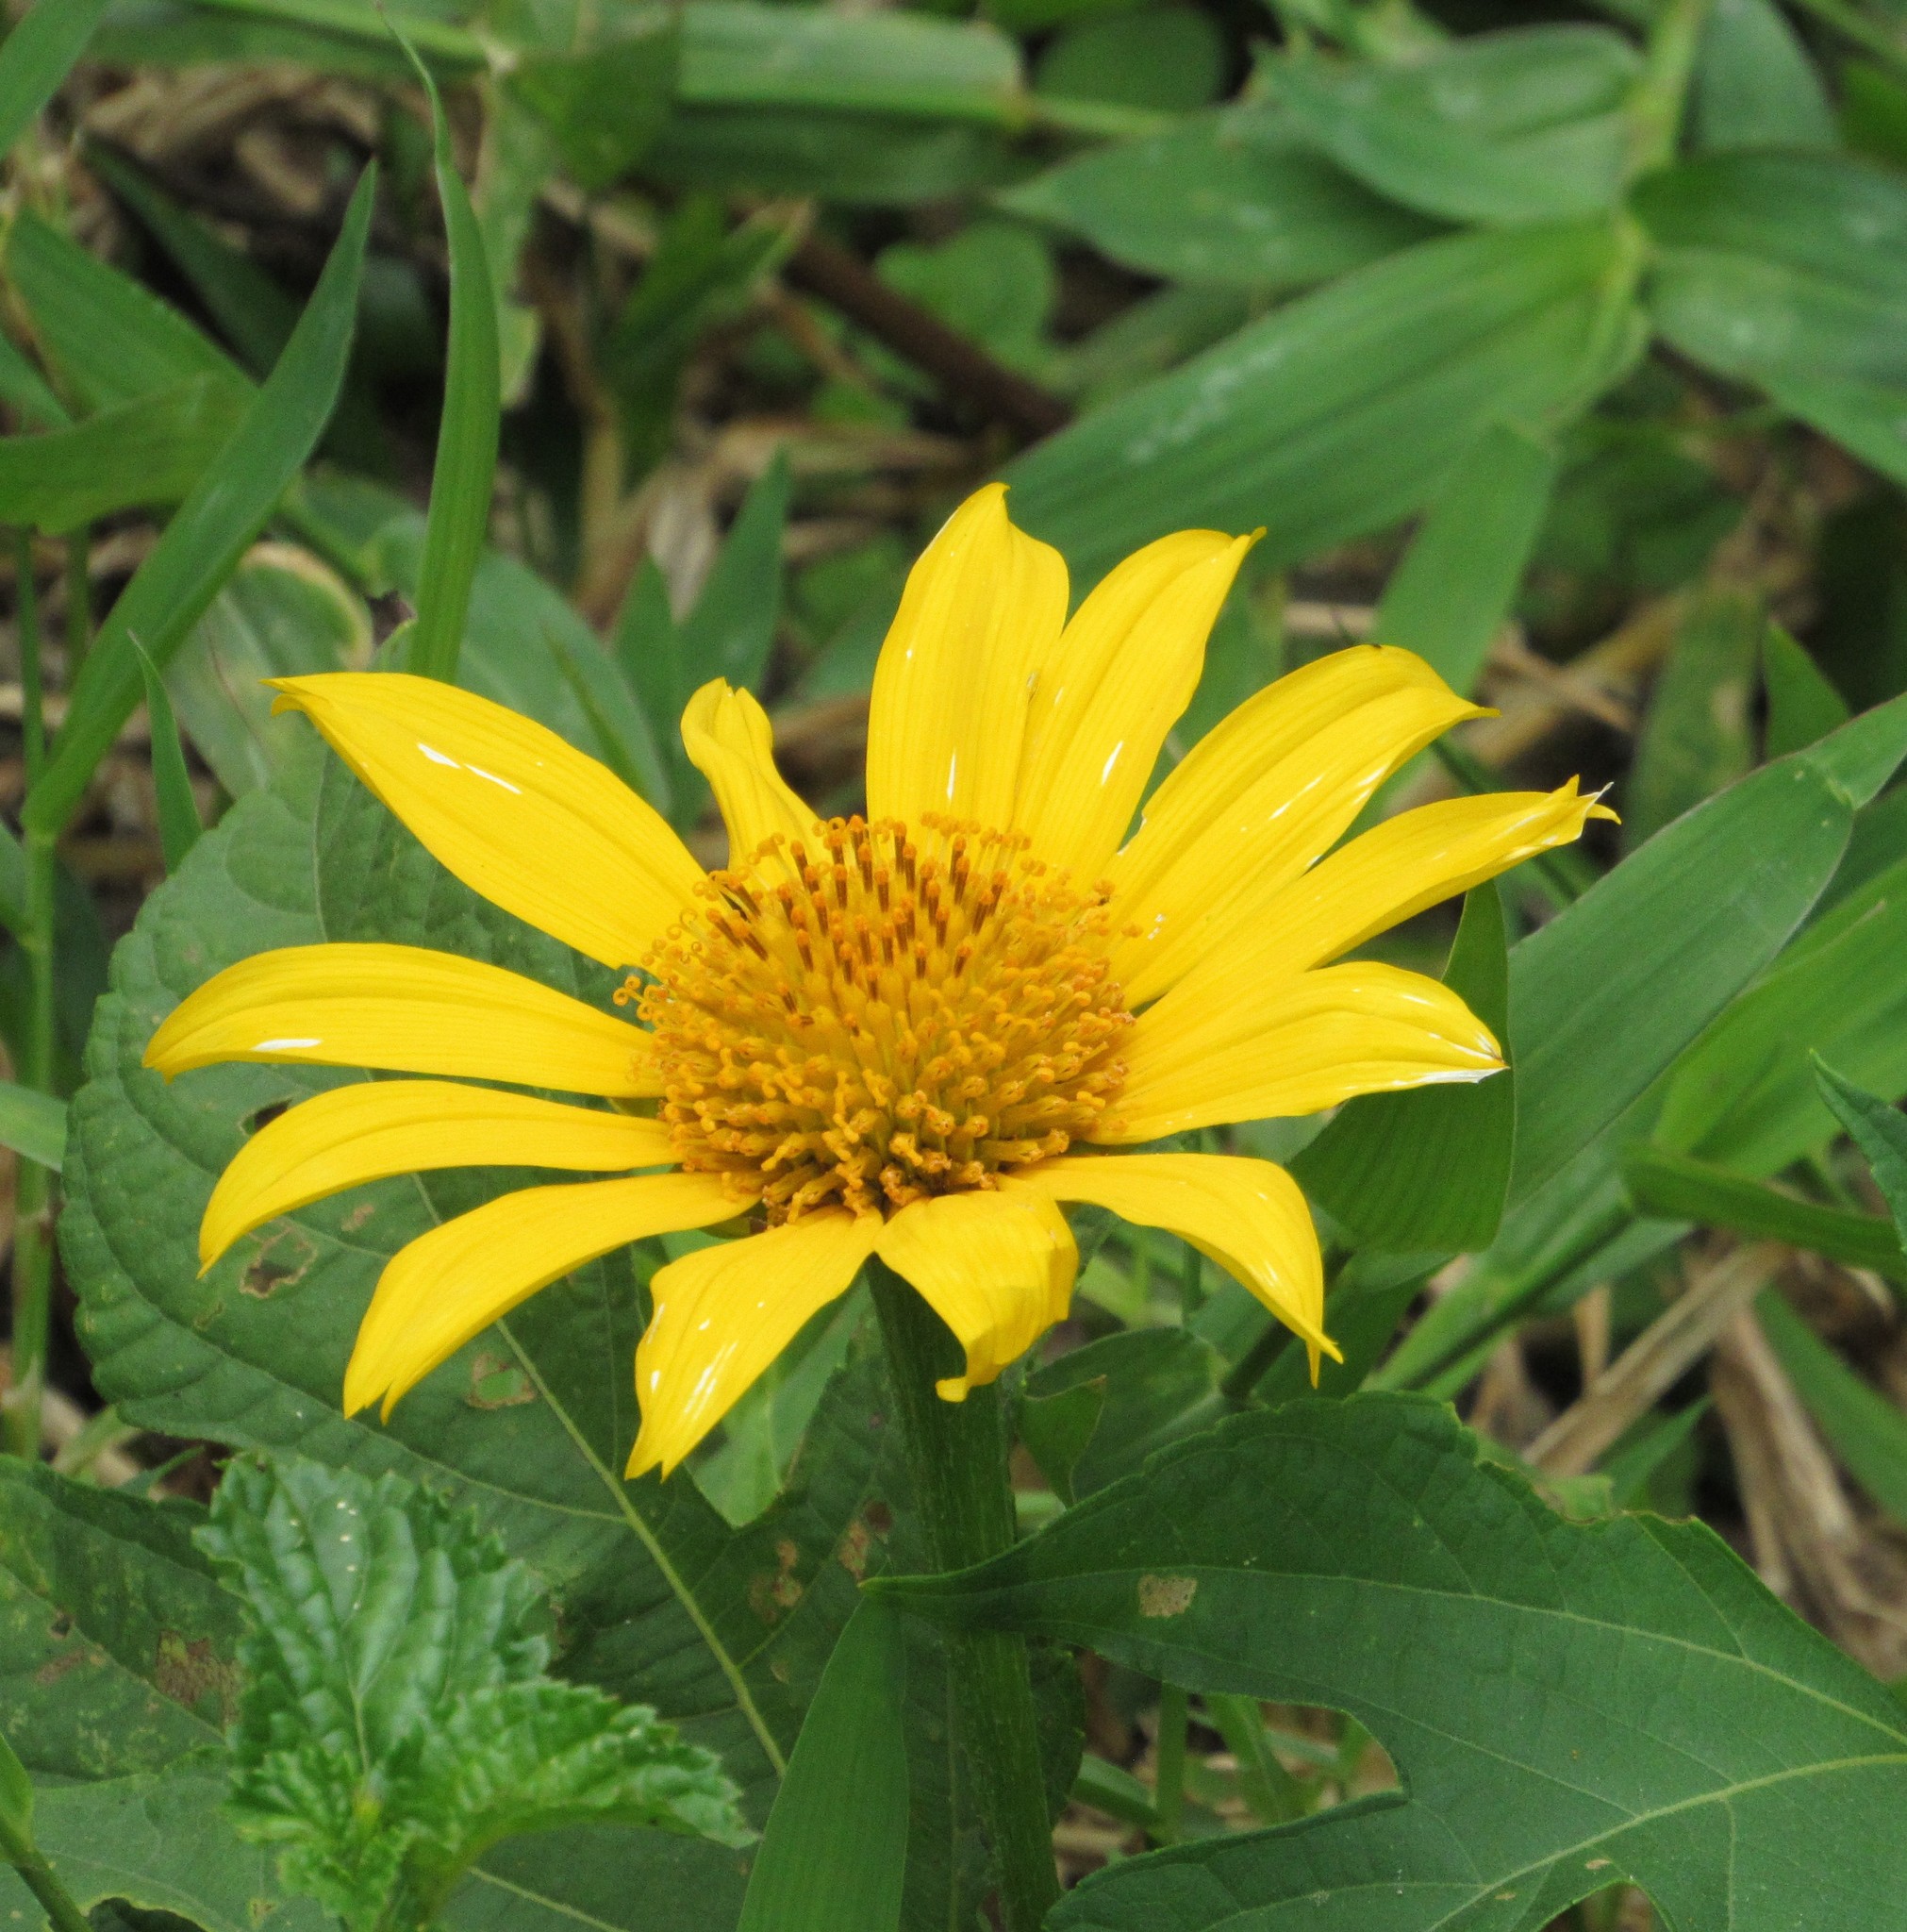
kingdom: Plantae
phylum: Tracheophyta
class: Magnoliopsida
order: Asterales
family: Asteraceae
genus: Sphagneticola
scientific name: Sphagneticola trilobata
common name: Bay biscayne creeping-oxeye
